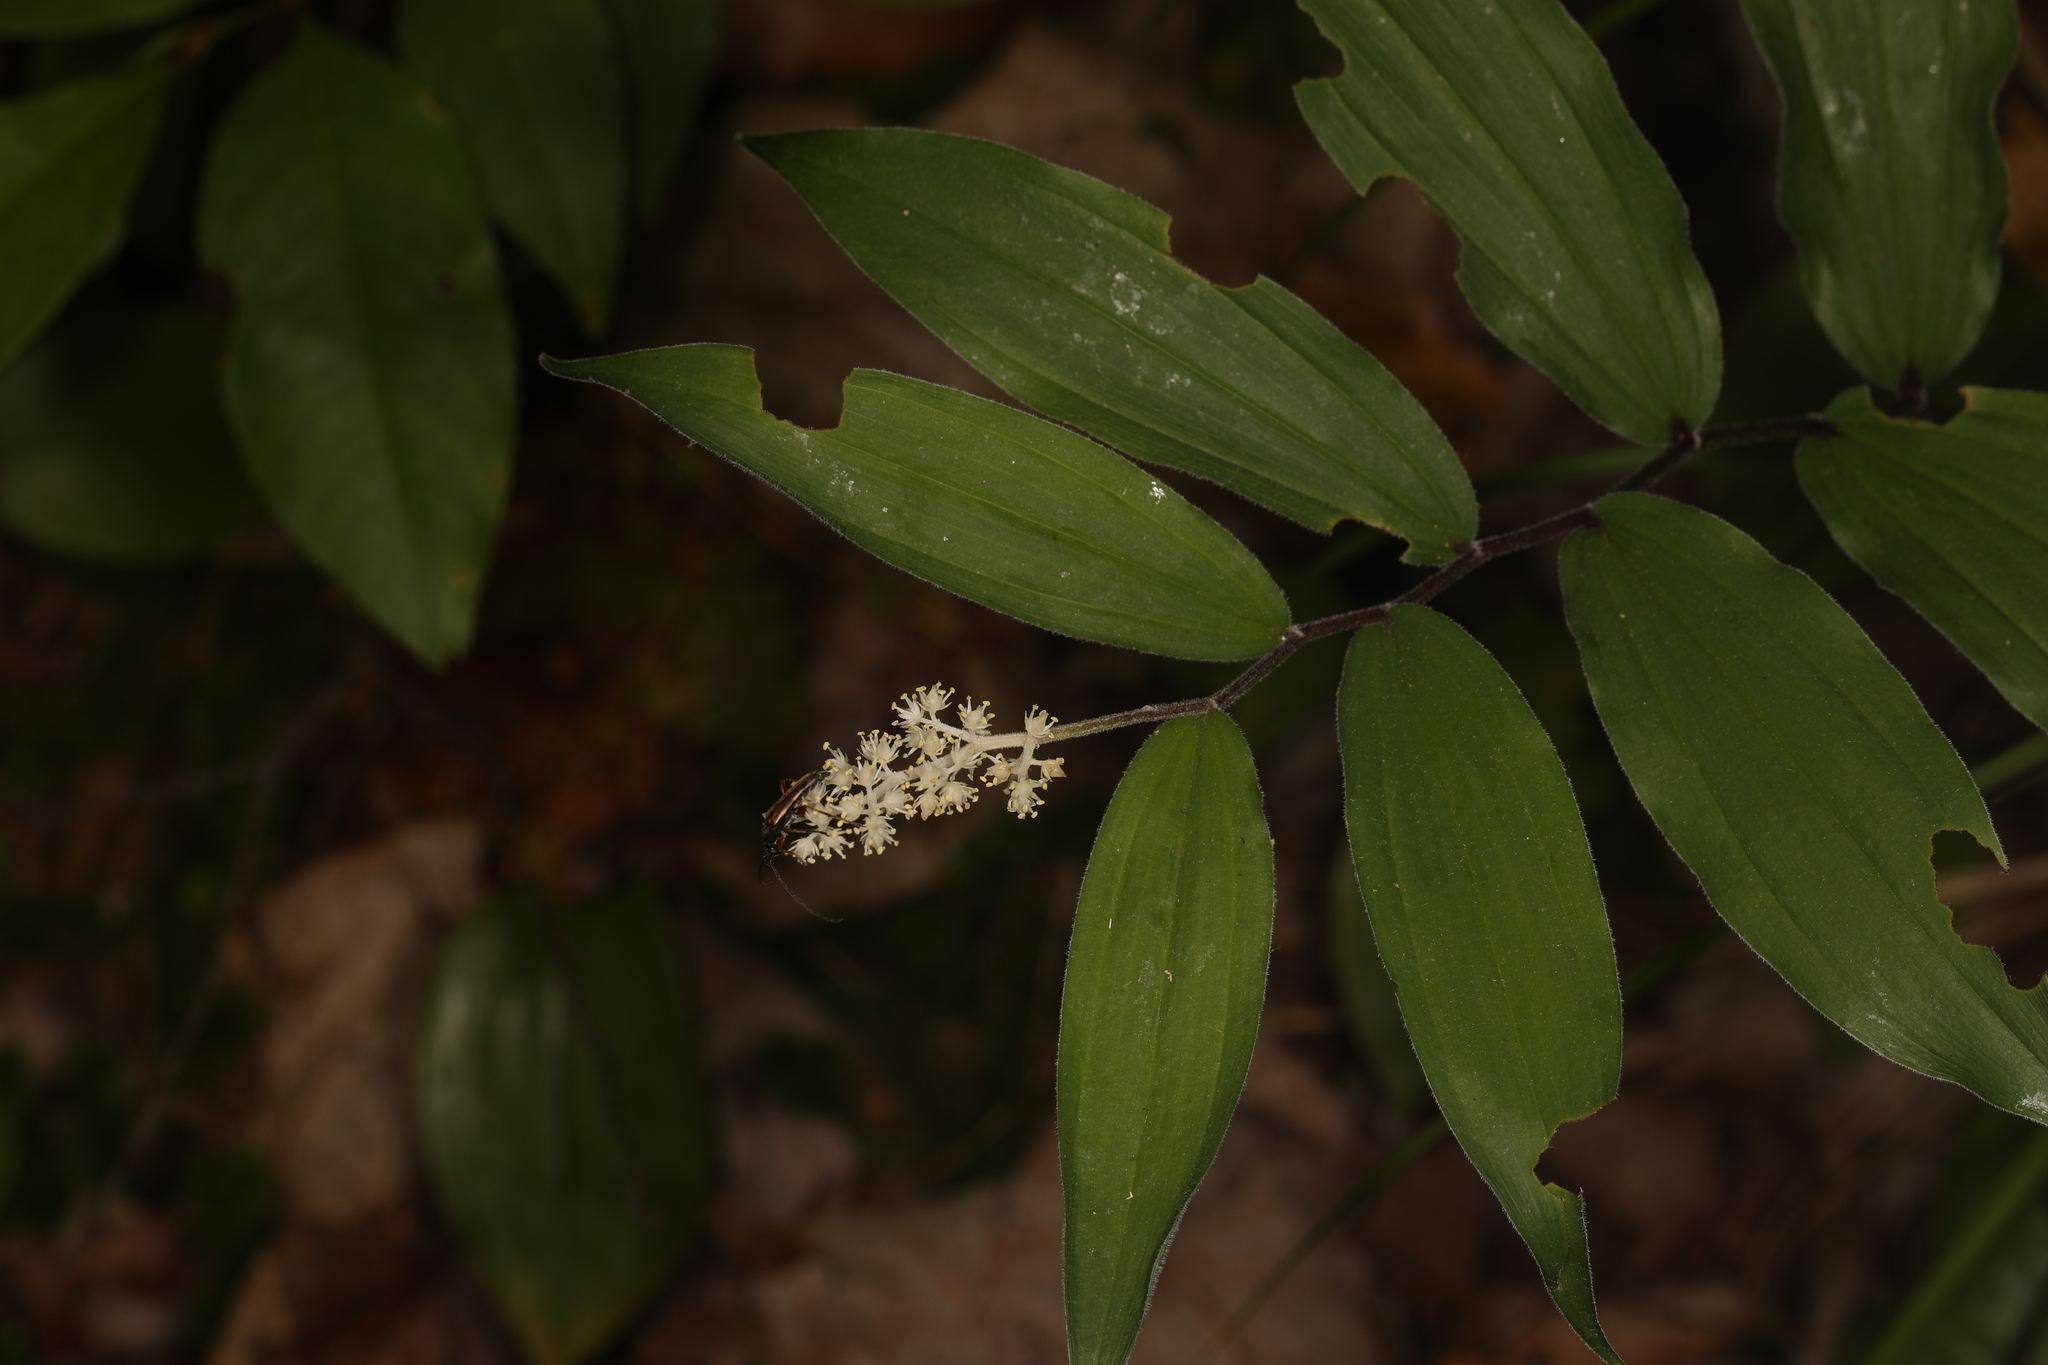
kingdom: Plantae
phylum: Tracheophyta
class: Liliopsida
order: Asparagales
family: Asparagaceae
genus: Maianthemum
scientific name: Maianthemum racemosum
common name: False spikenard
